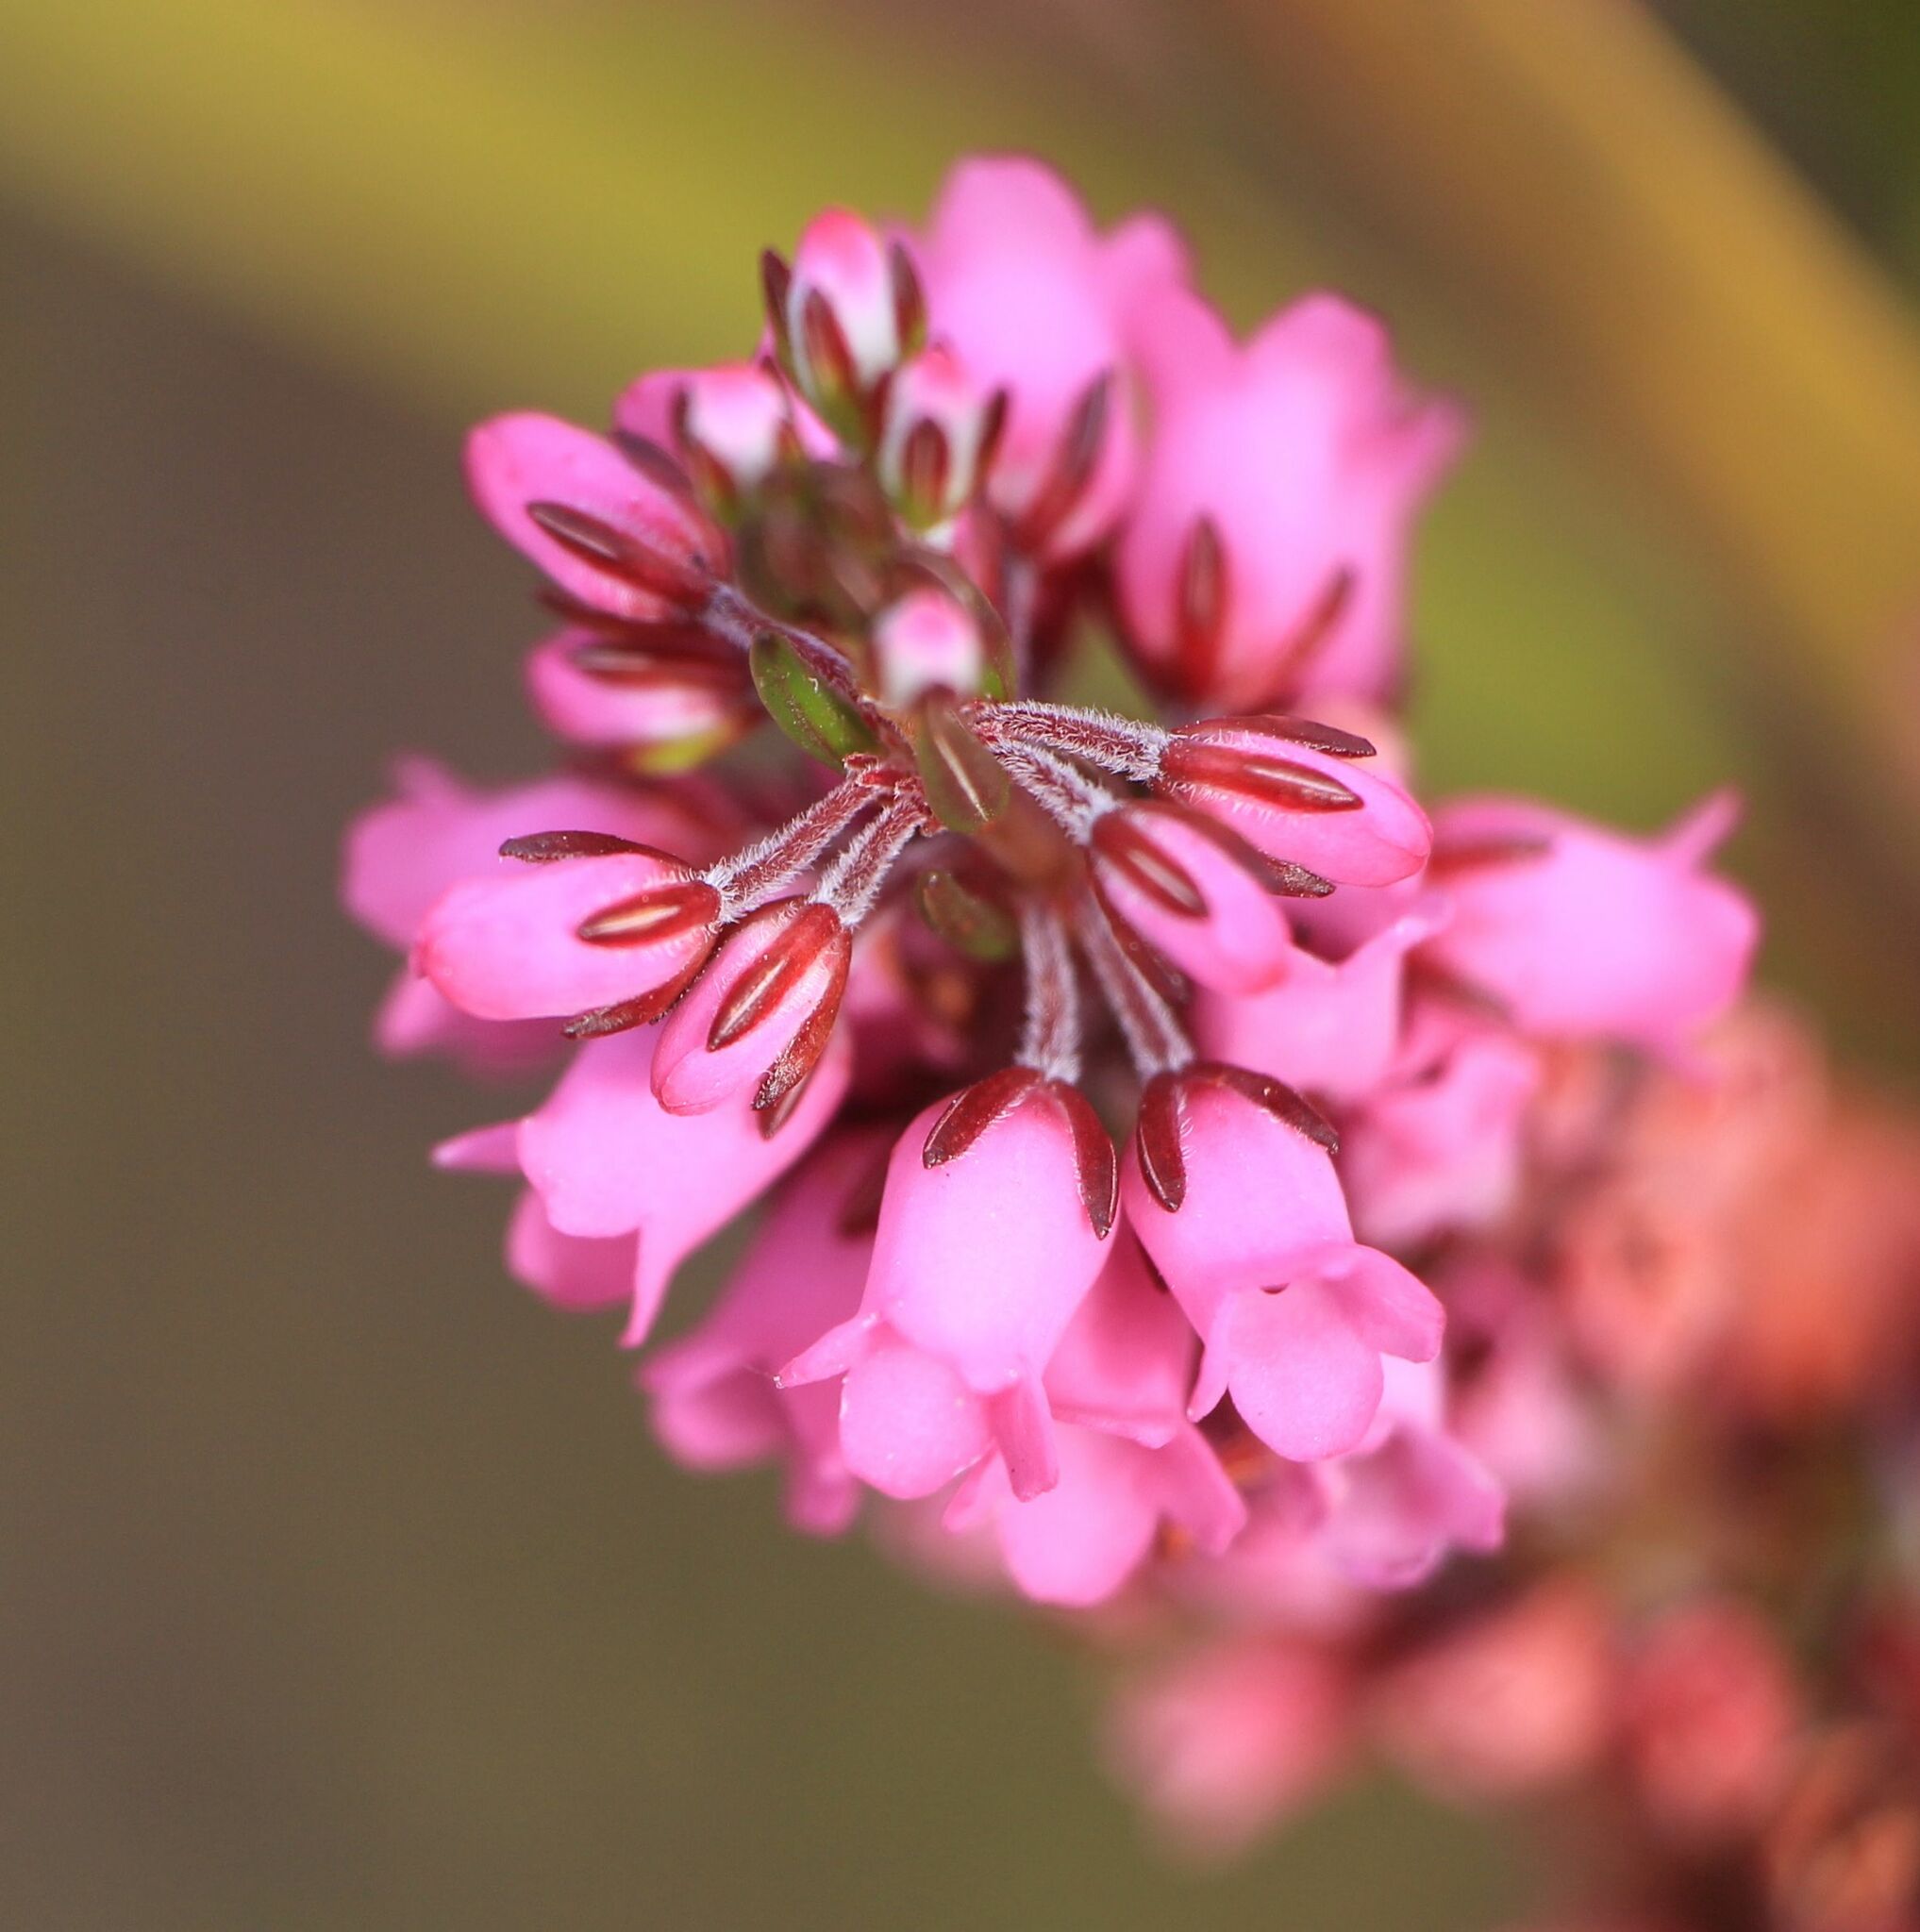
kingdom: Plantae
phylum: Tracheophyta
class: Magnoliopsida
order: Ericales
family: Ericaceae
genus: Erica
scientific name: Erica pulchella
